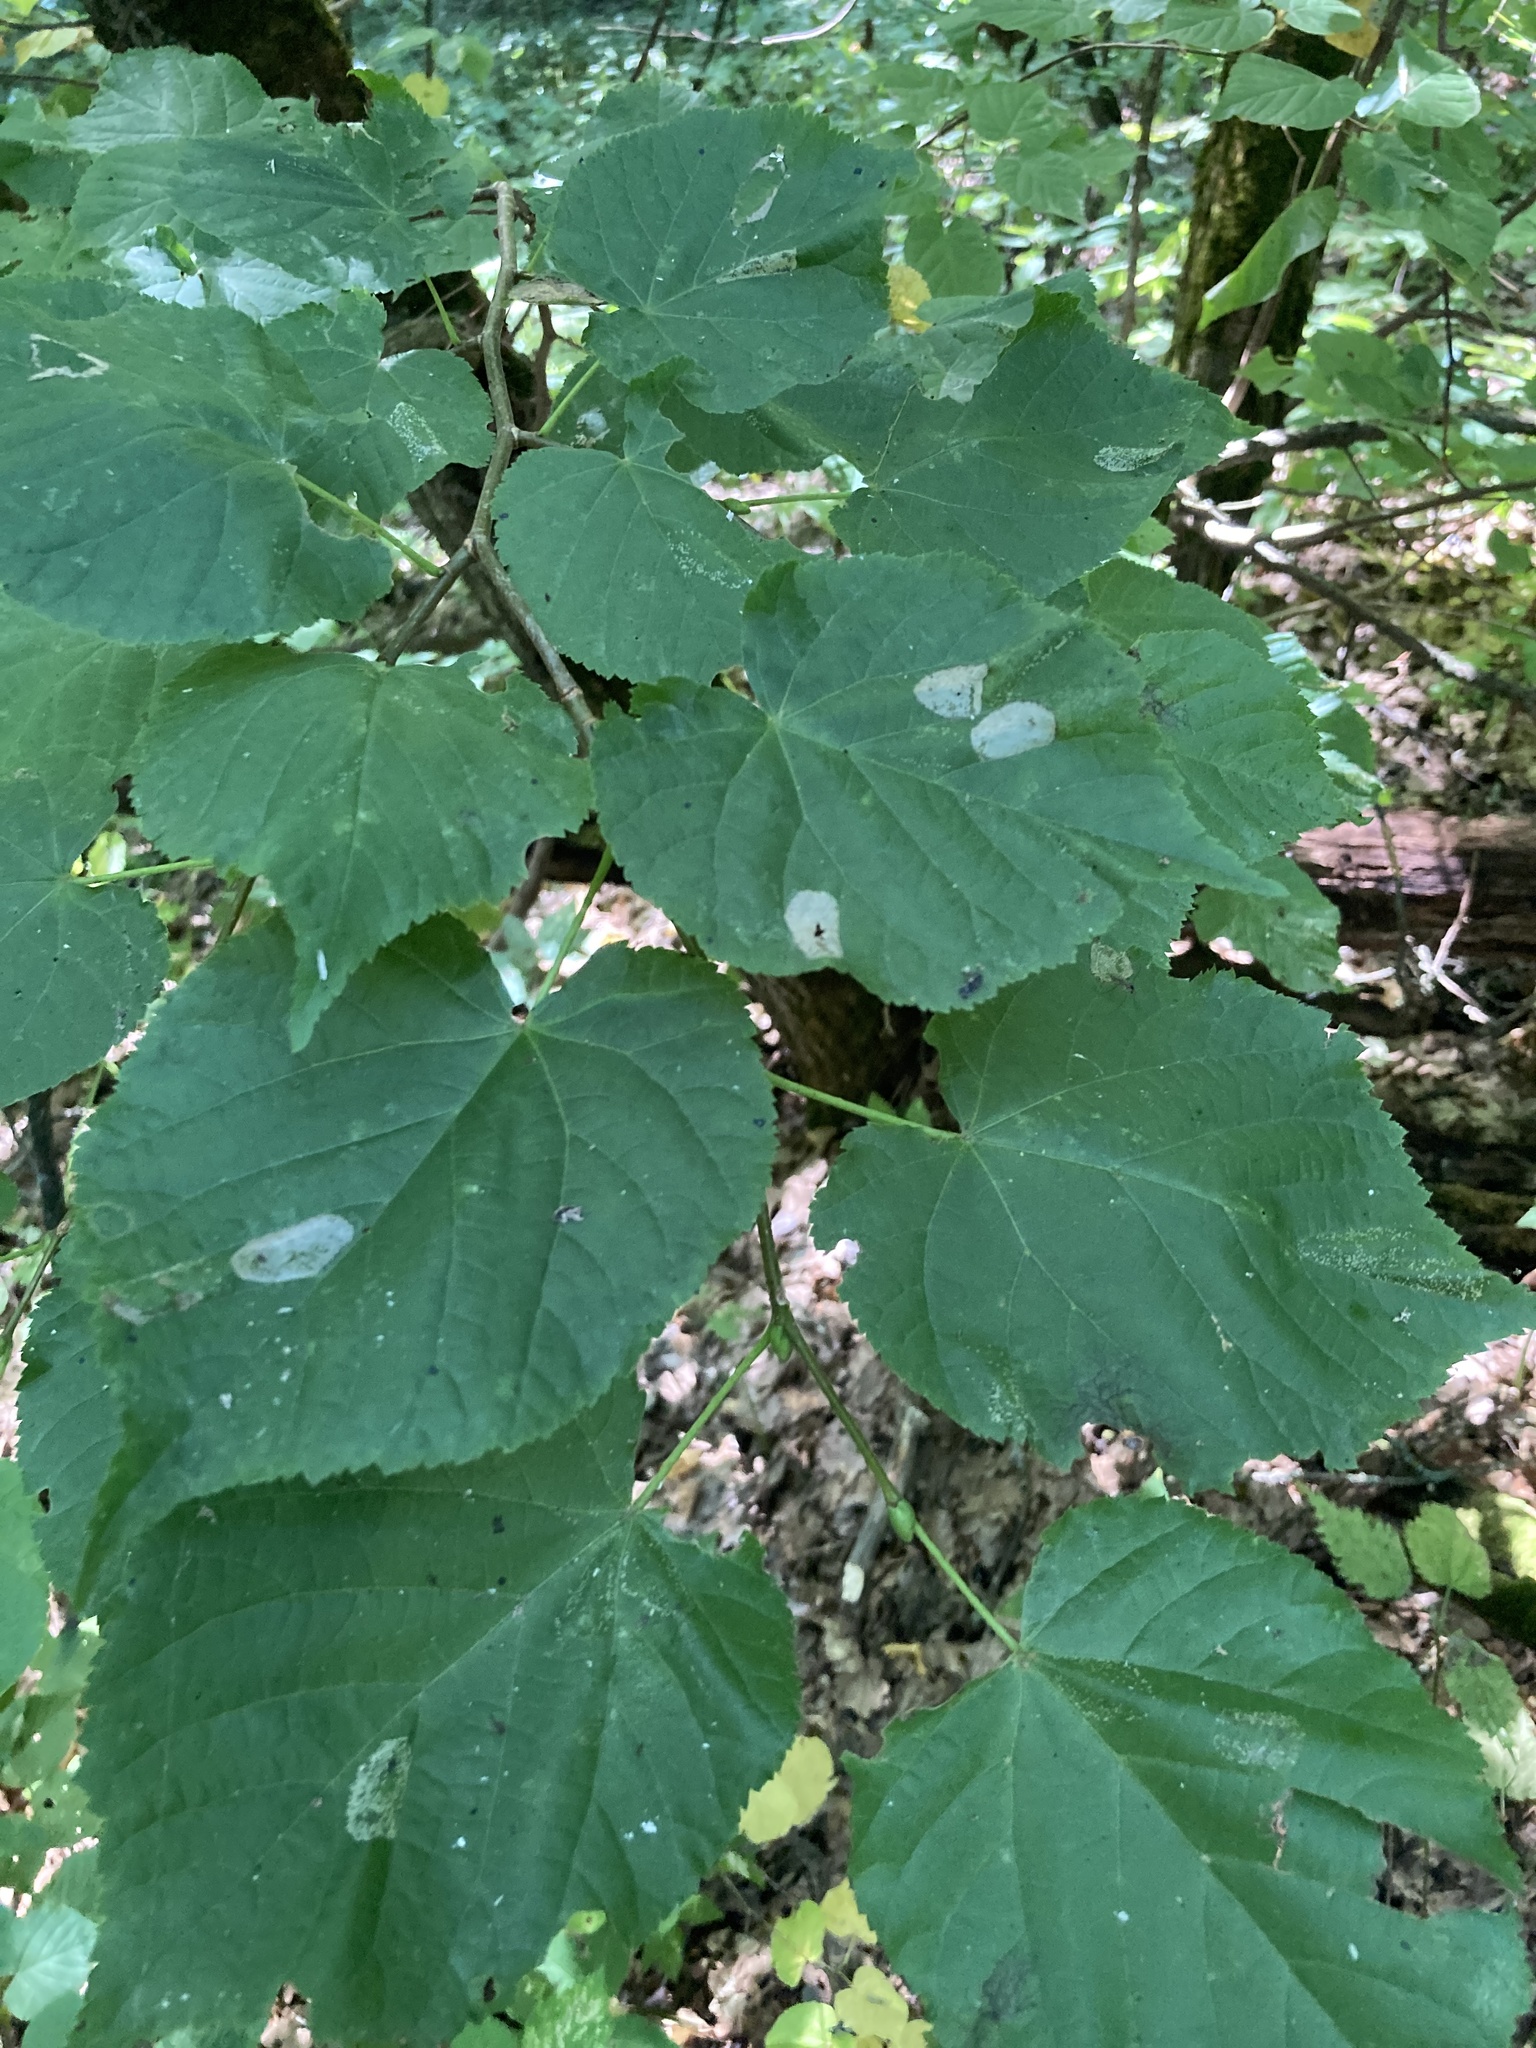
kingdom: Plantae
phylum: Tracheophyta
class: Magnoliopsida
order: Malvales
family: Malvaceae
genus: Tilia
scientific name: Tilia cordata
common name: Small-leaved lime
